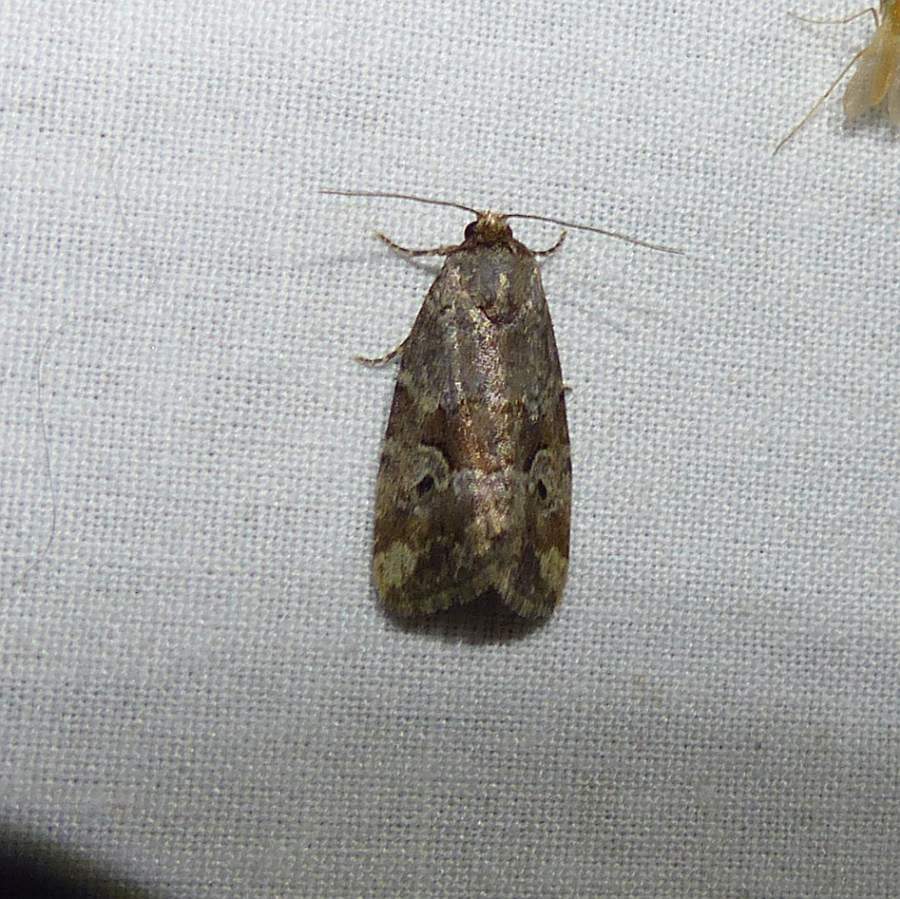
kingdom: Animalia
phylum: Arthropoda
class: Insecta
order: Lepidoptera
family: Noctuidae
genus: Elaphria
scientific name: Elaphria alapallida
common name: Pale-winged midget
